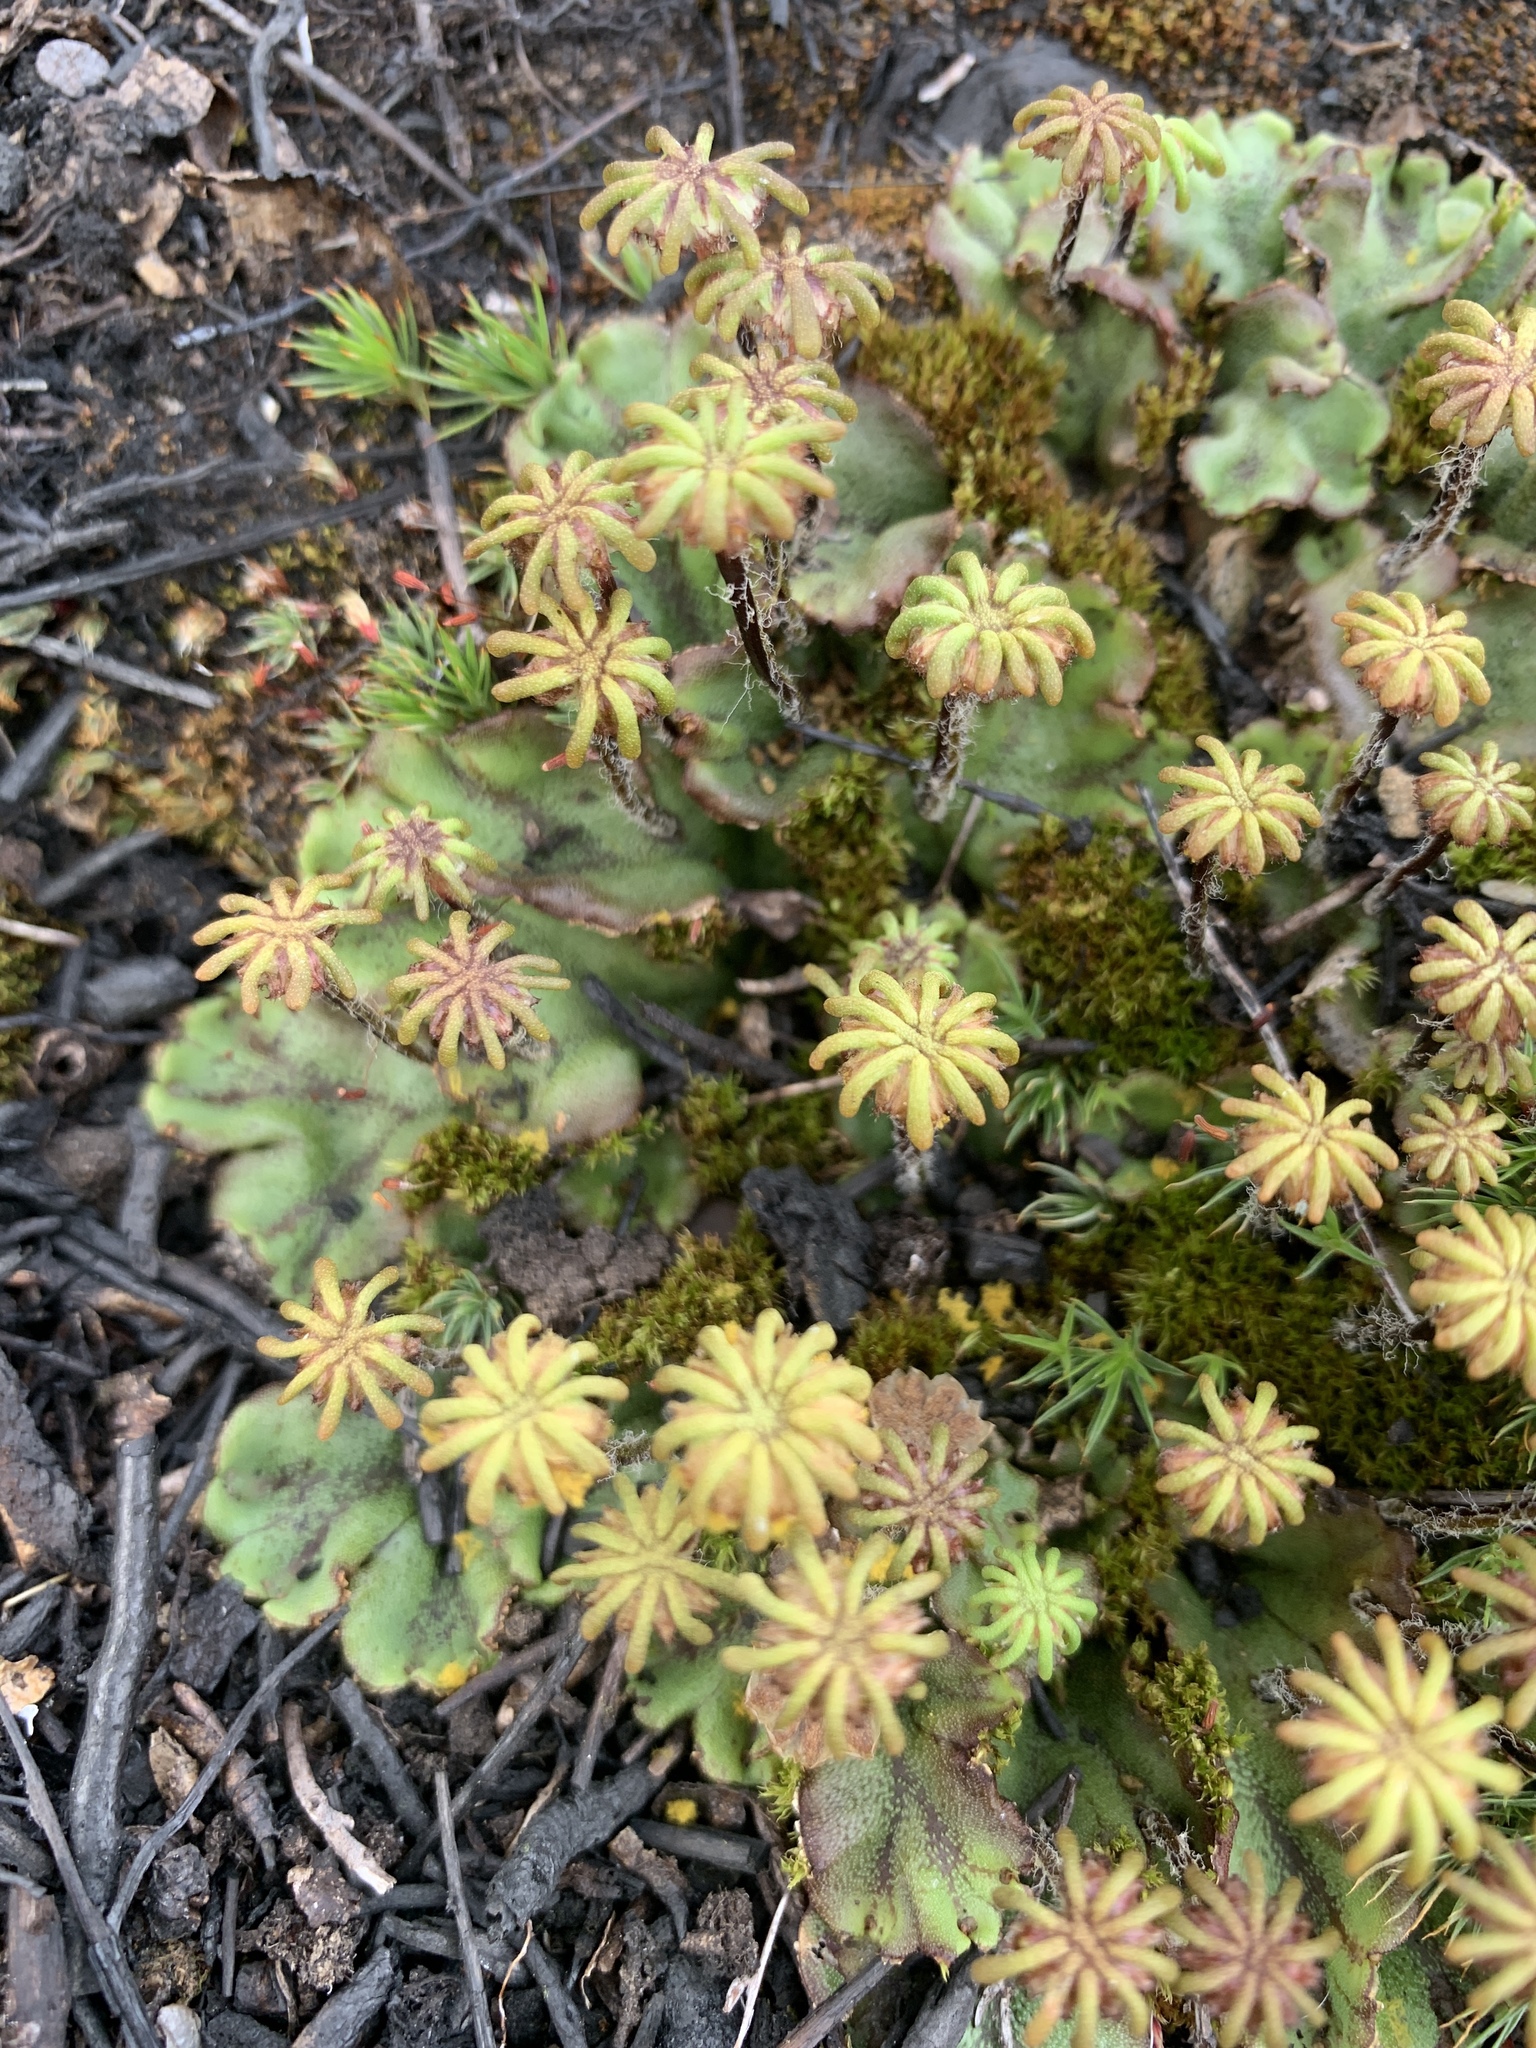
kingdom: Plantae
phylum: Marchantiophyta
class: Marchantiopsida
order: Marchantiales
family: Marchantiaceae
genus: Marchantia
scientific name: Marchantia polymorpha
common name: Common liverwort
